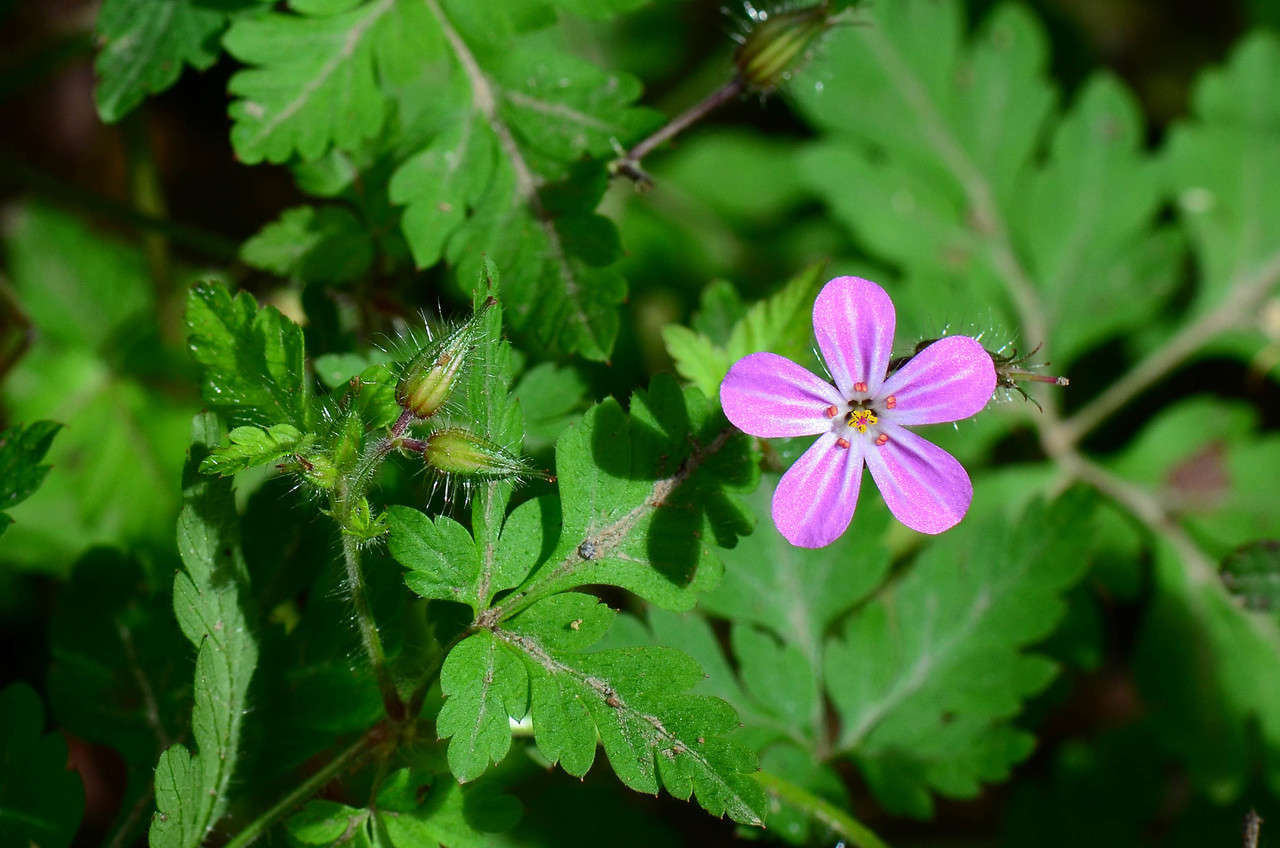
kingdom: Plantae
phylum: Tracheophyta
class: Magnoliopsida
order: Geraniales
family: Geraniaceae
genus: Geranium
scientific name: Geranium robertianum
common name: Herb-robert
